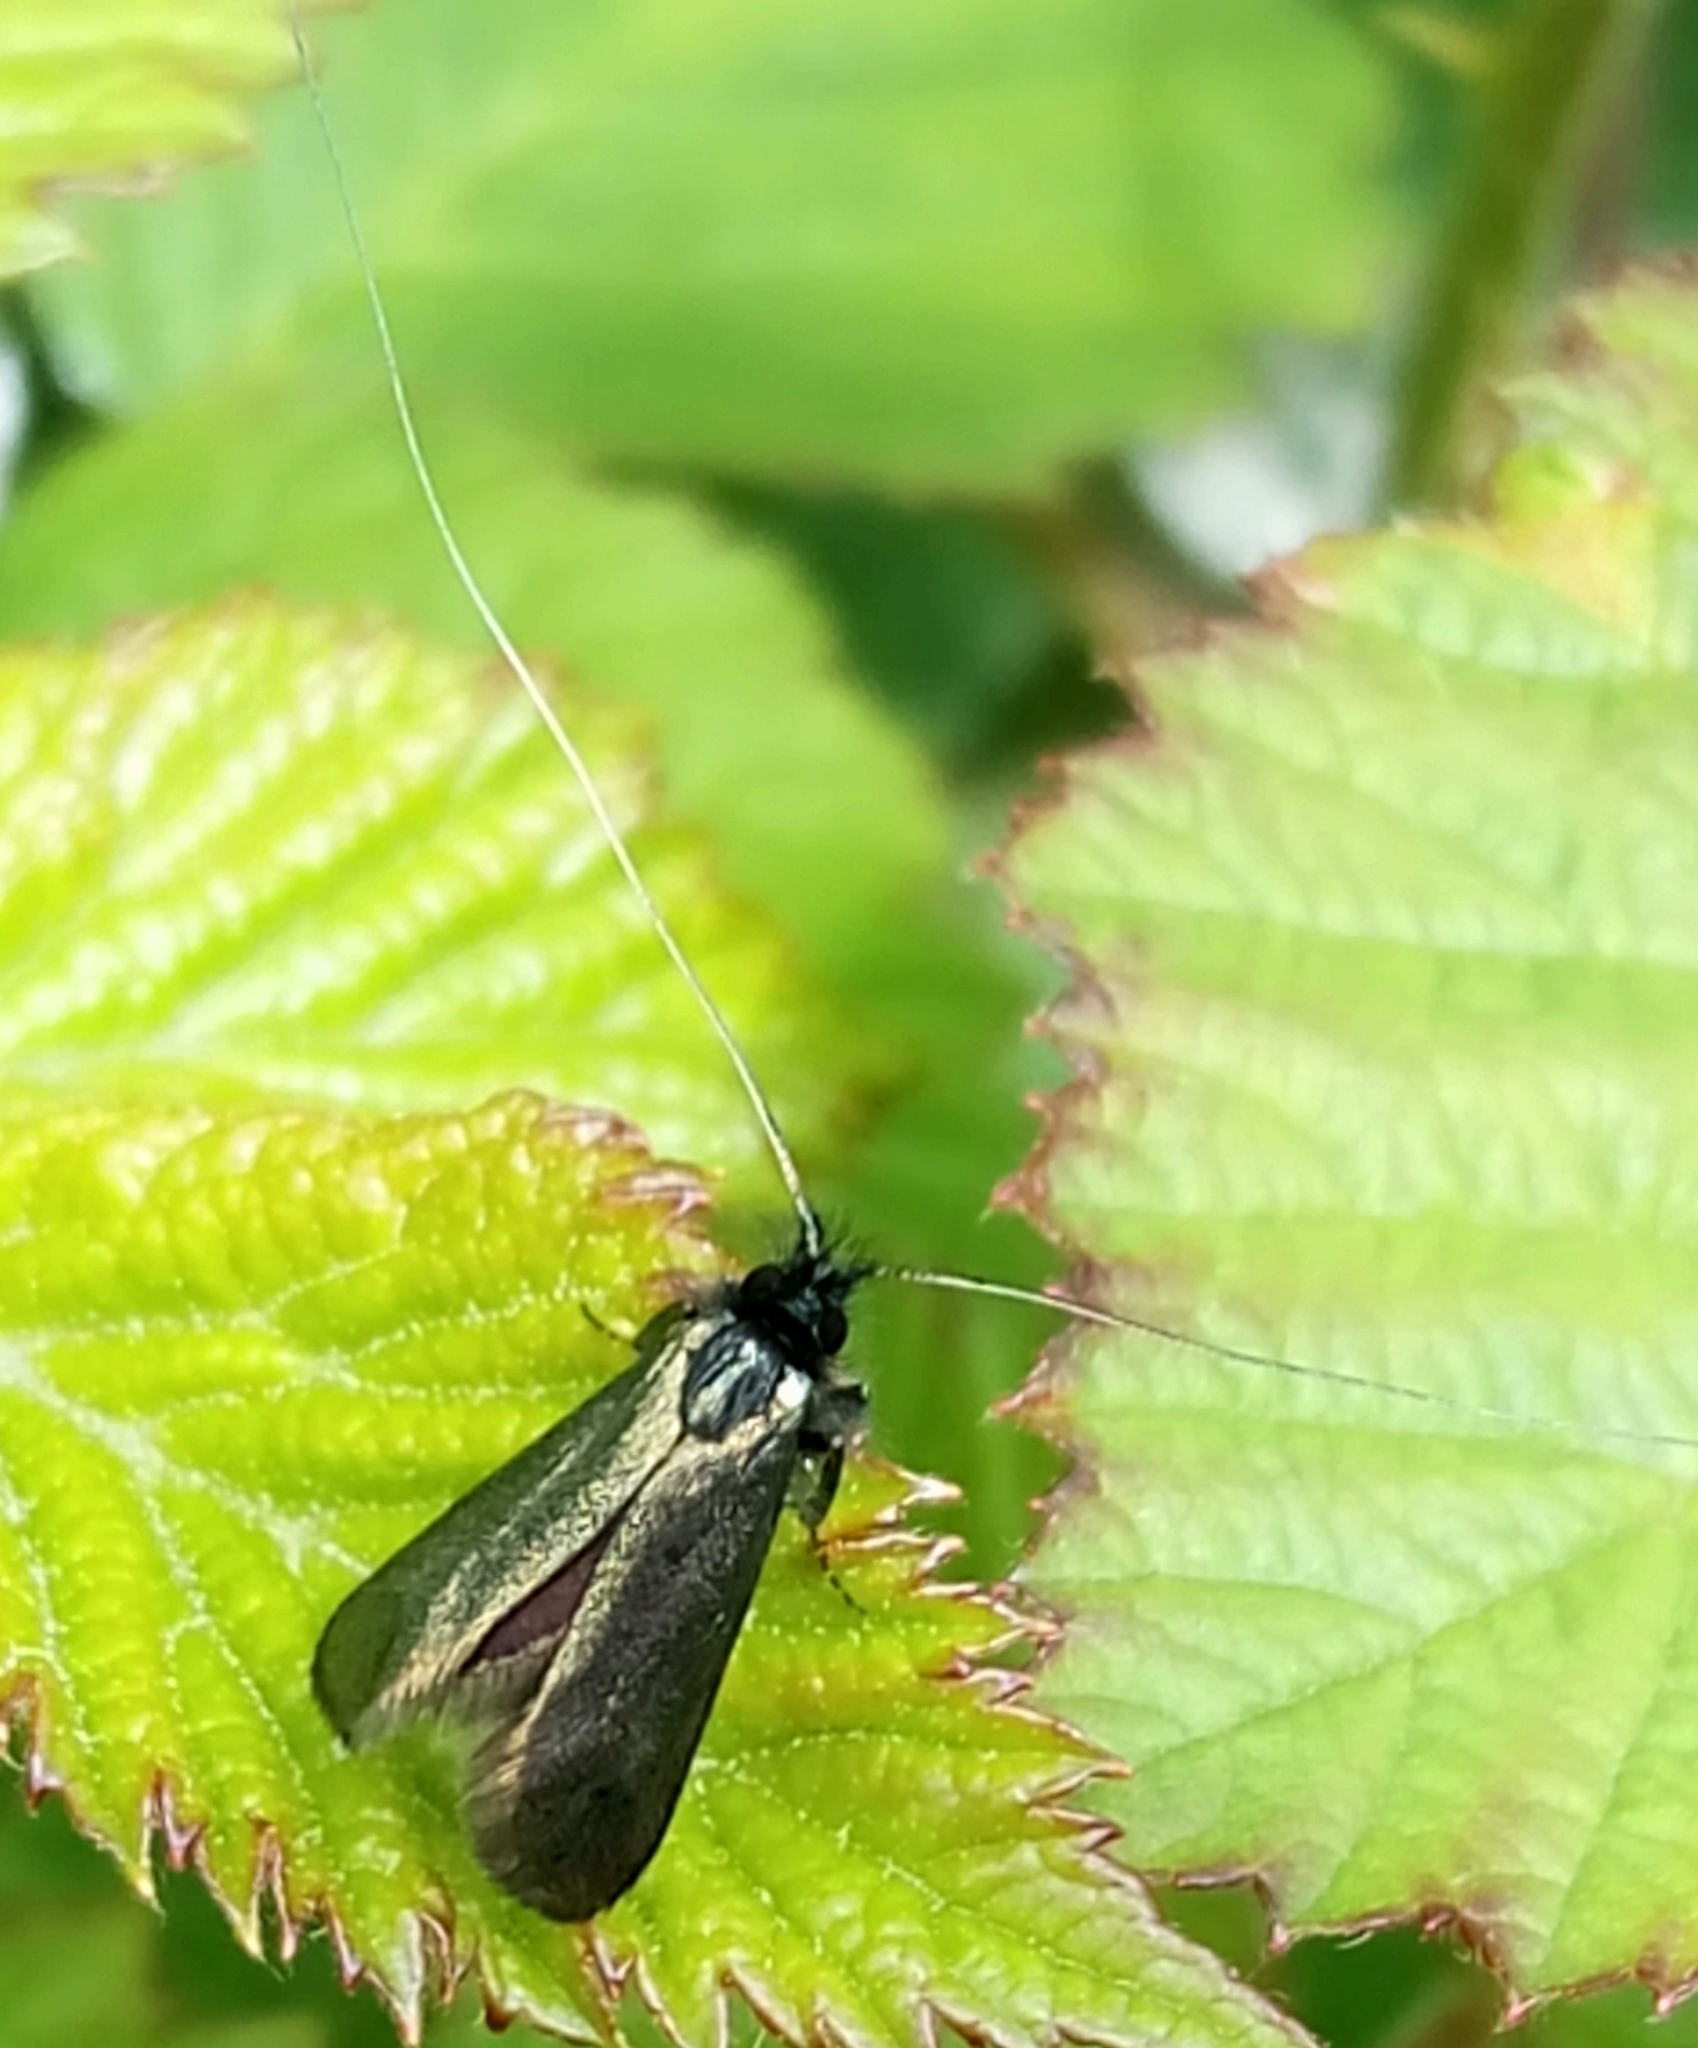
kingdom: Animalia
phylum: Arthropoda
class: Insecta
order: Lepidoptera
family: Adelidae
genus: Adela
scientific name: Adela viridella
